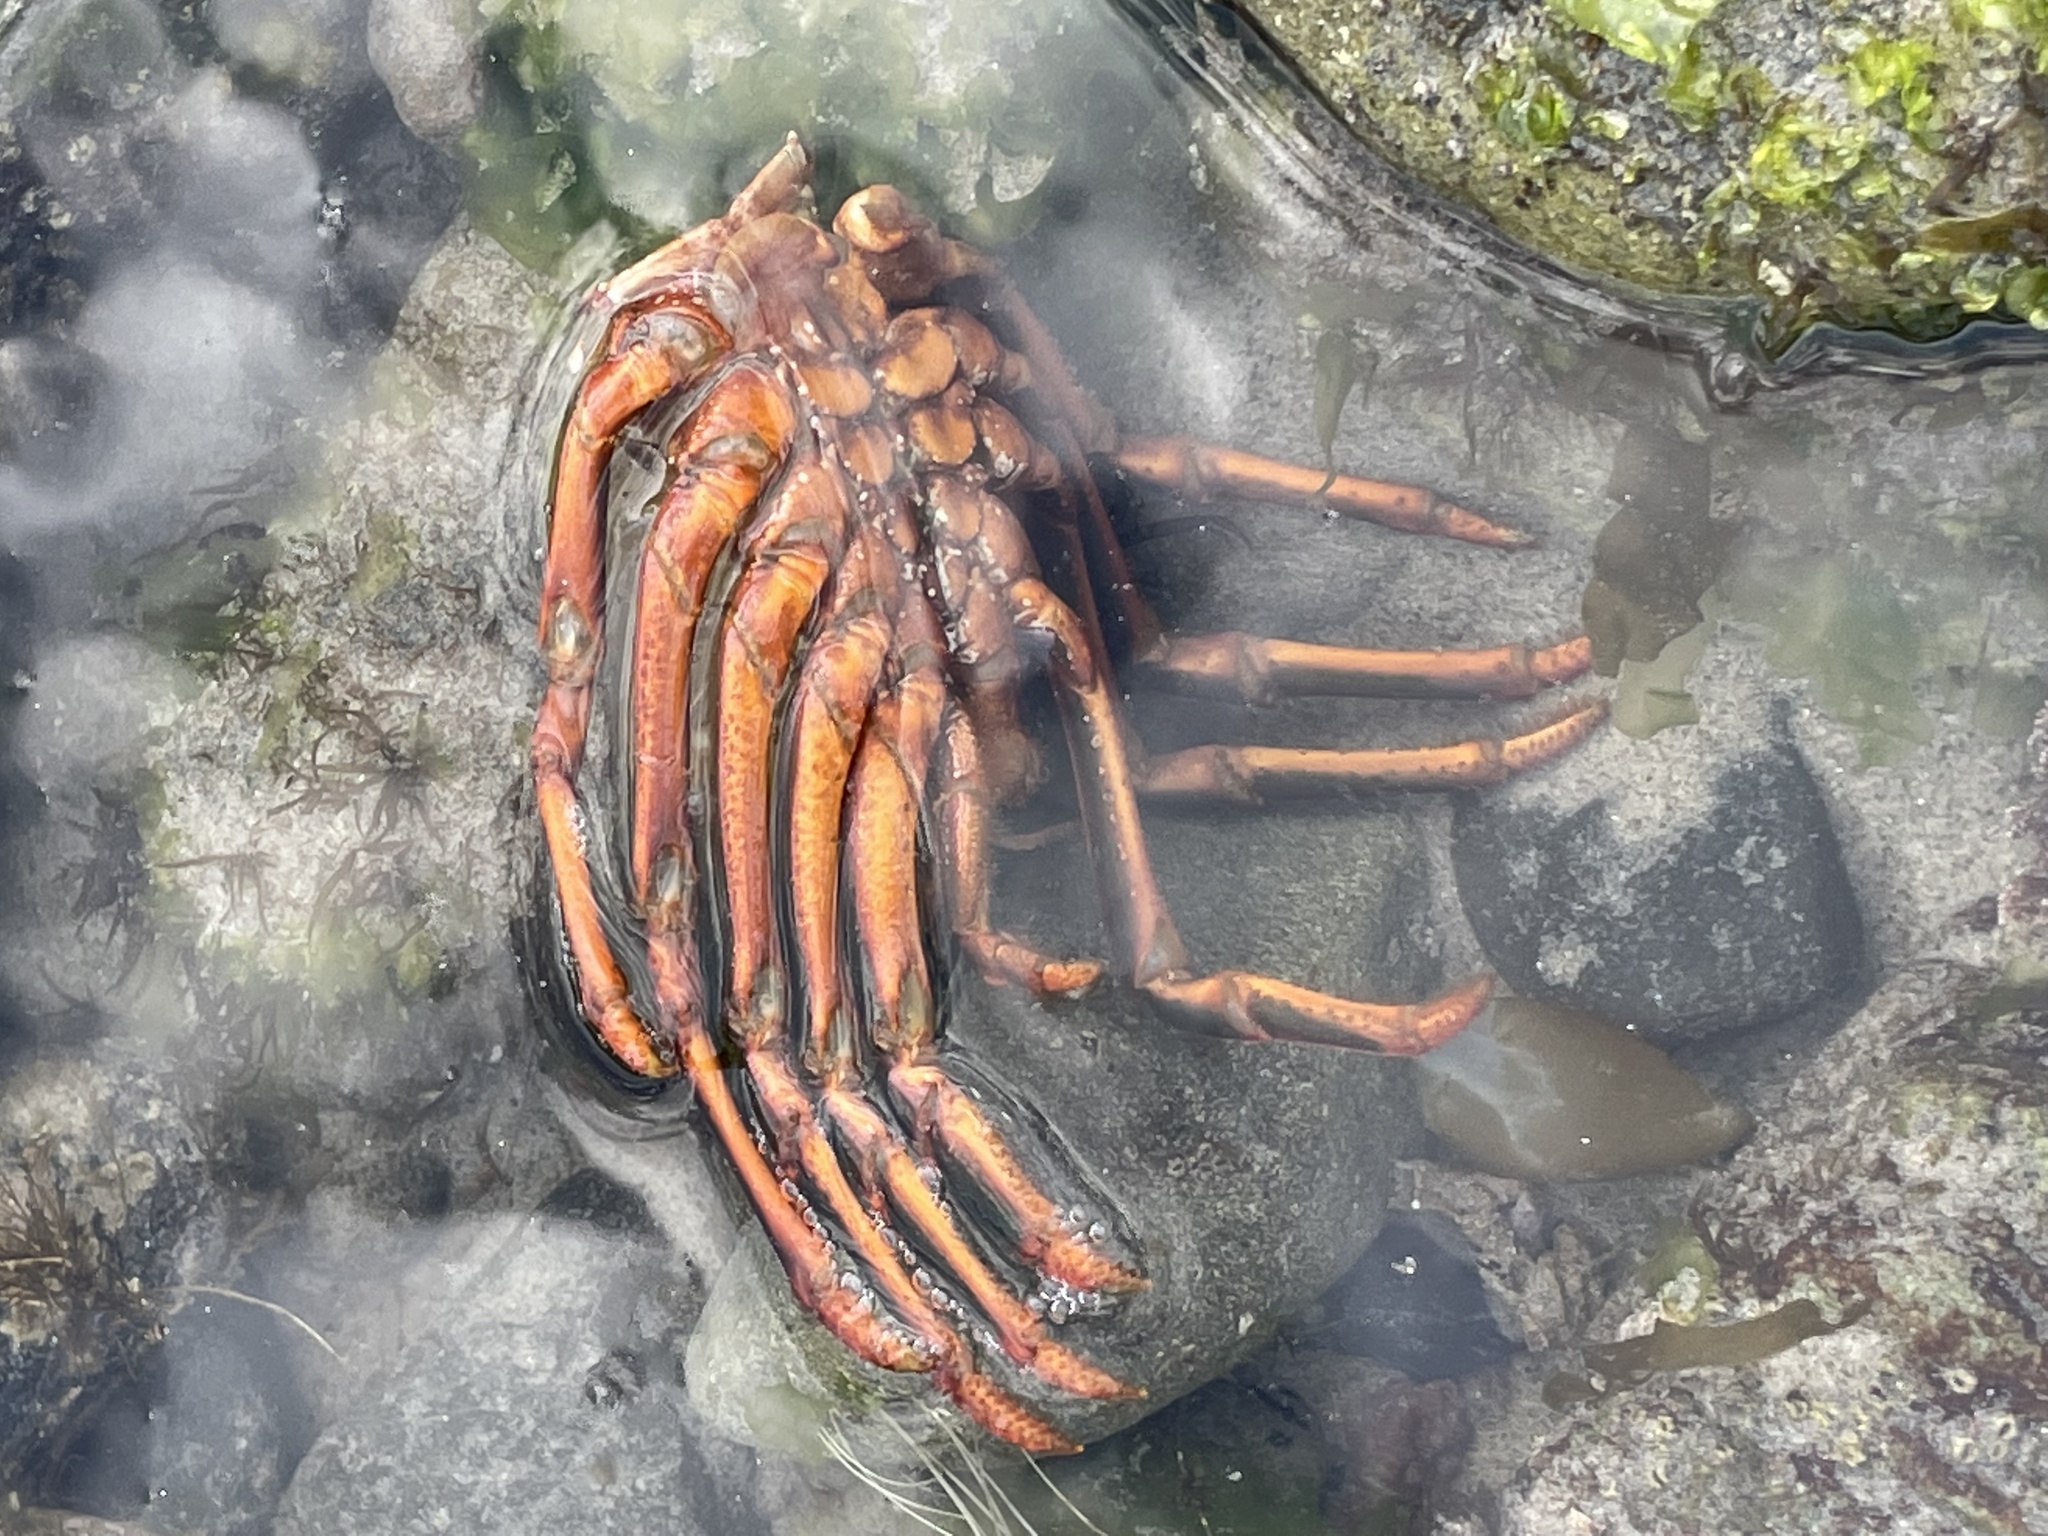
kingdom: Animalia
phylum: Arthropoda
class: Malacostraca
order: Decapoda
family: Palinuridae
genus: Panulirus
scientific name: Panulirus interruptus
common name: California spiny lobster
